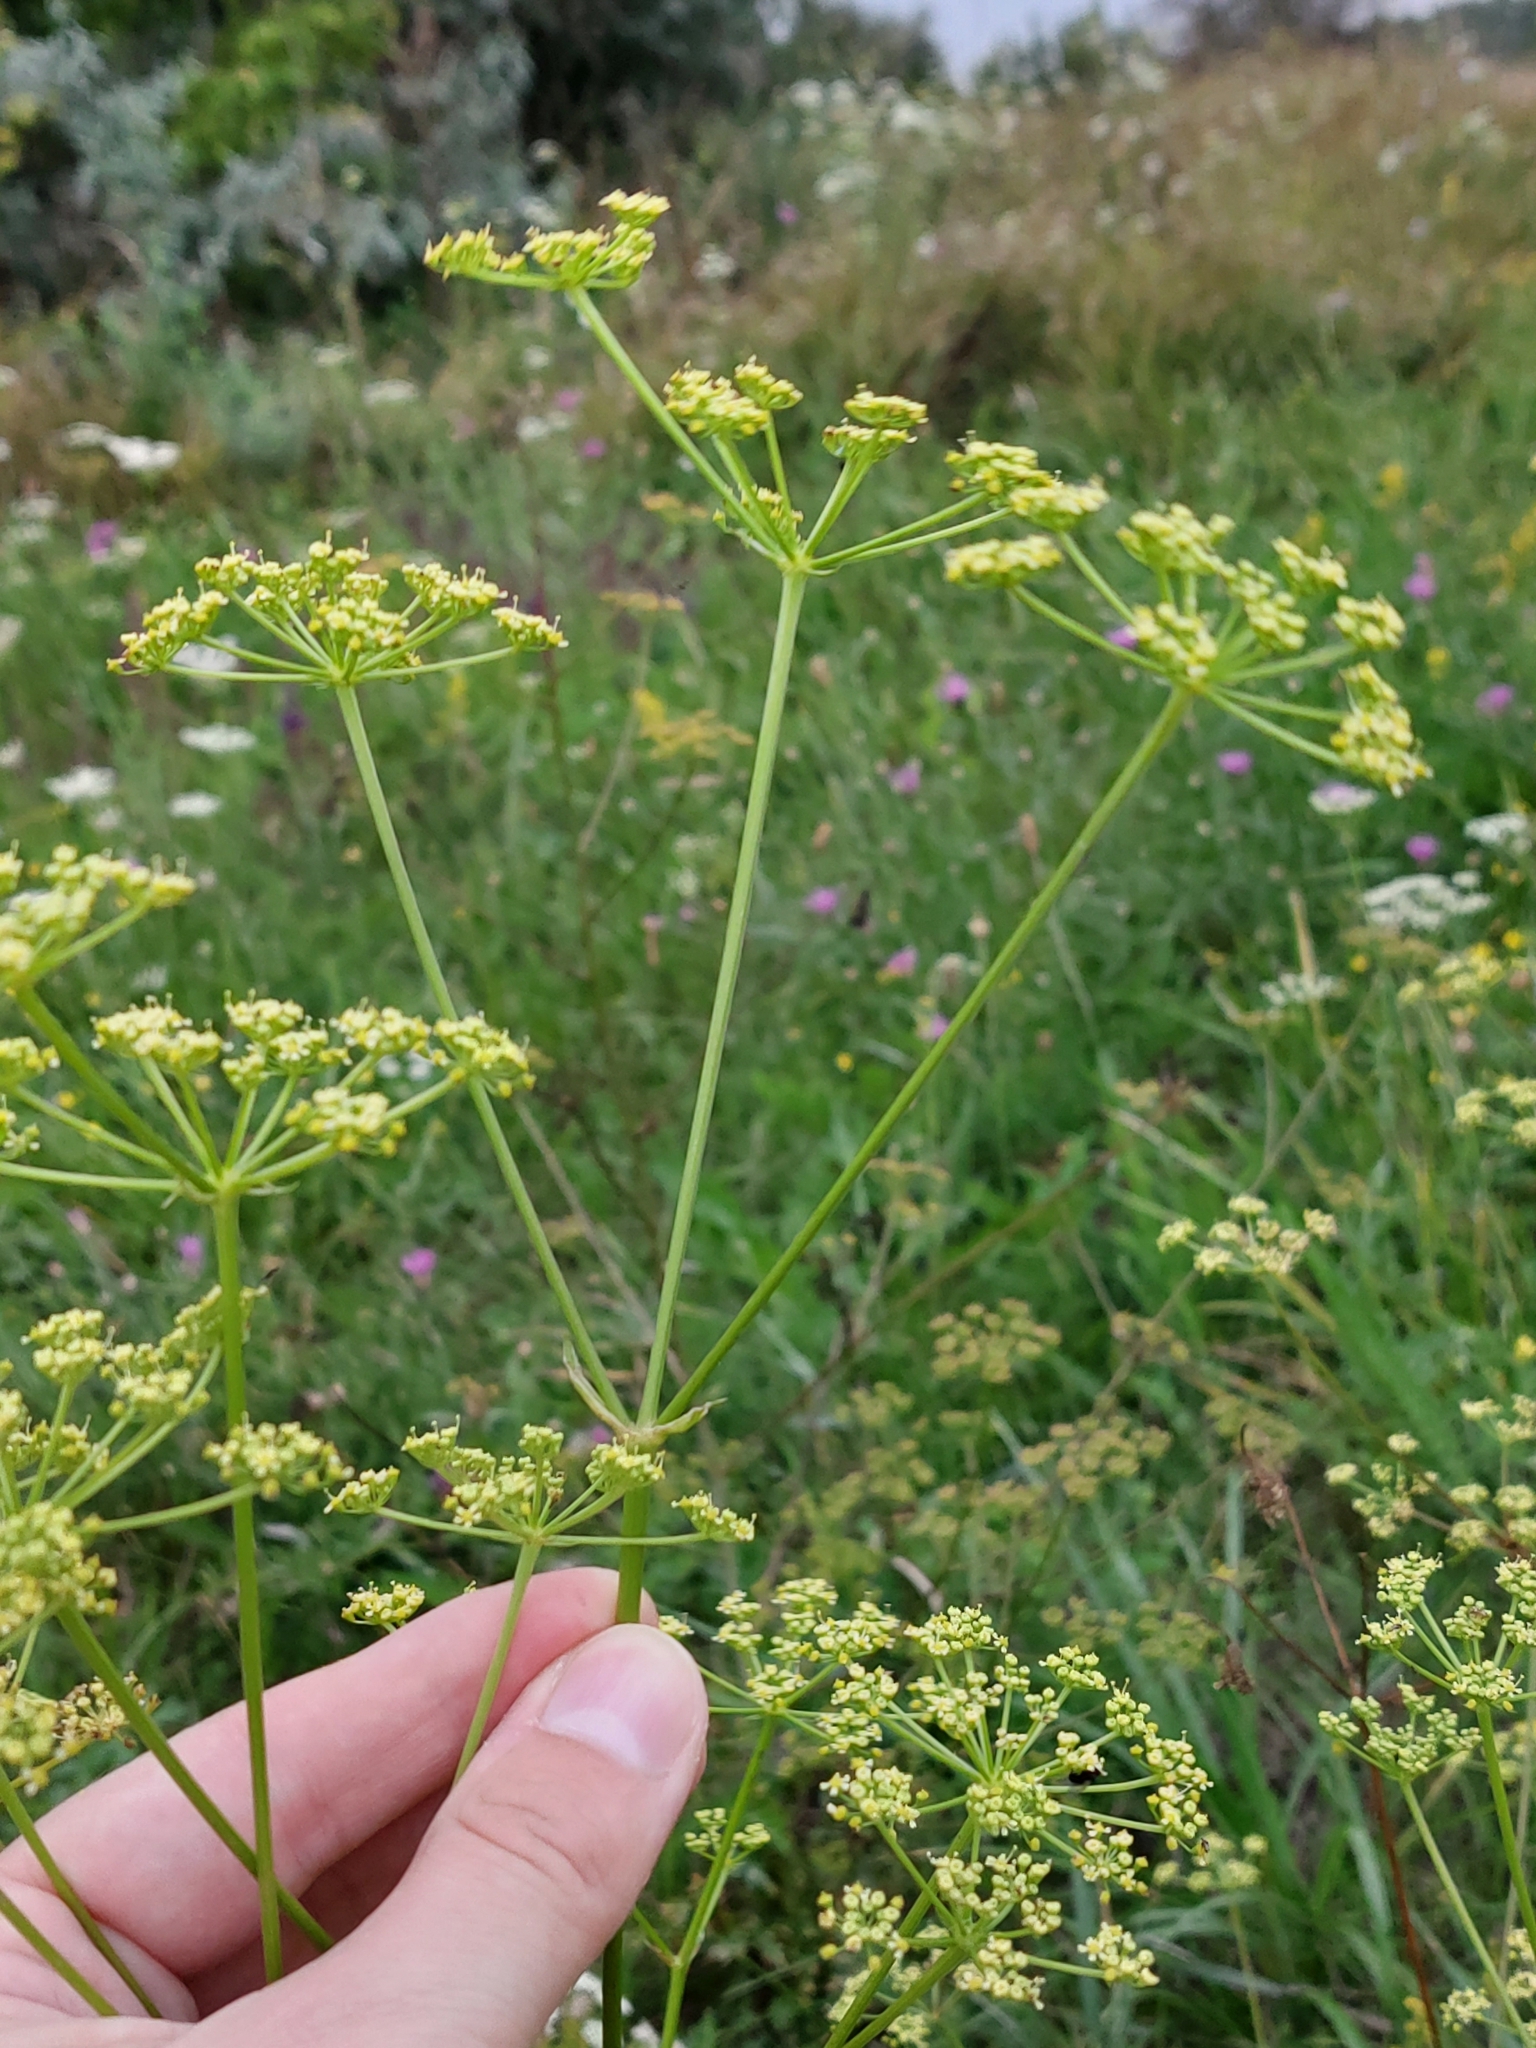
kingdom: Plantae
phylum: Tracheophyta
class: Magnoliopsida
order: Apiales
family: Apiaceae
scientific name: Apiaceae
